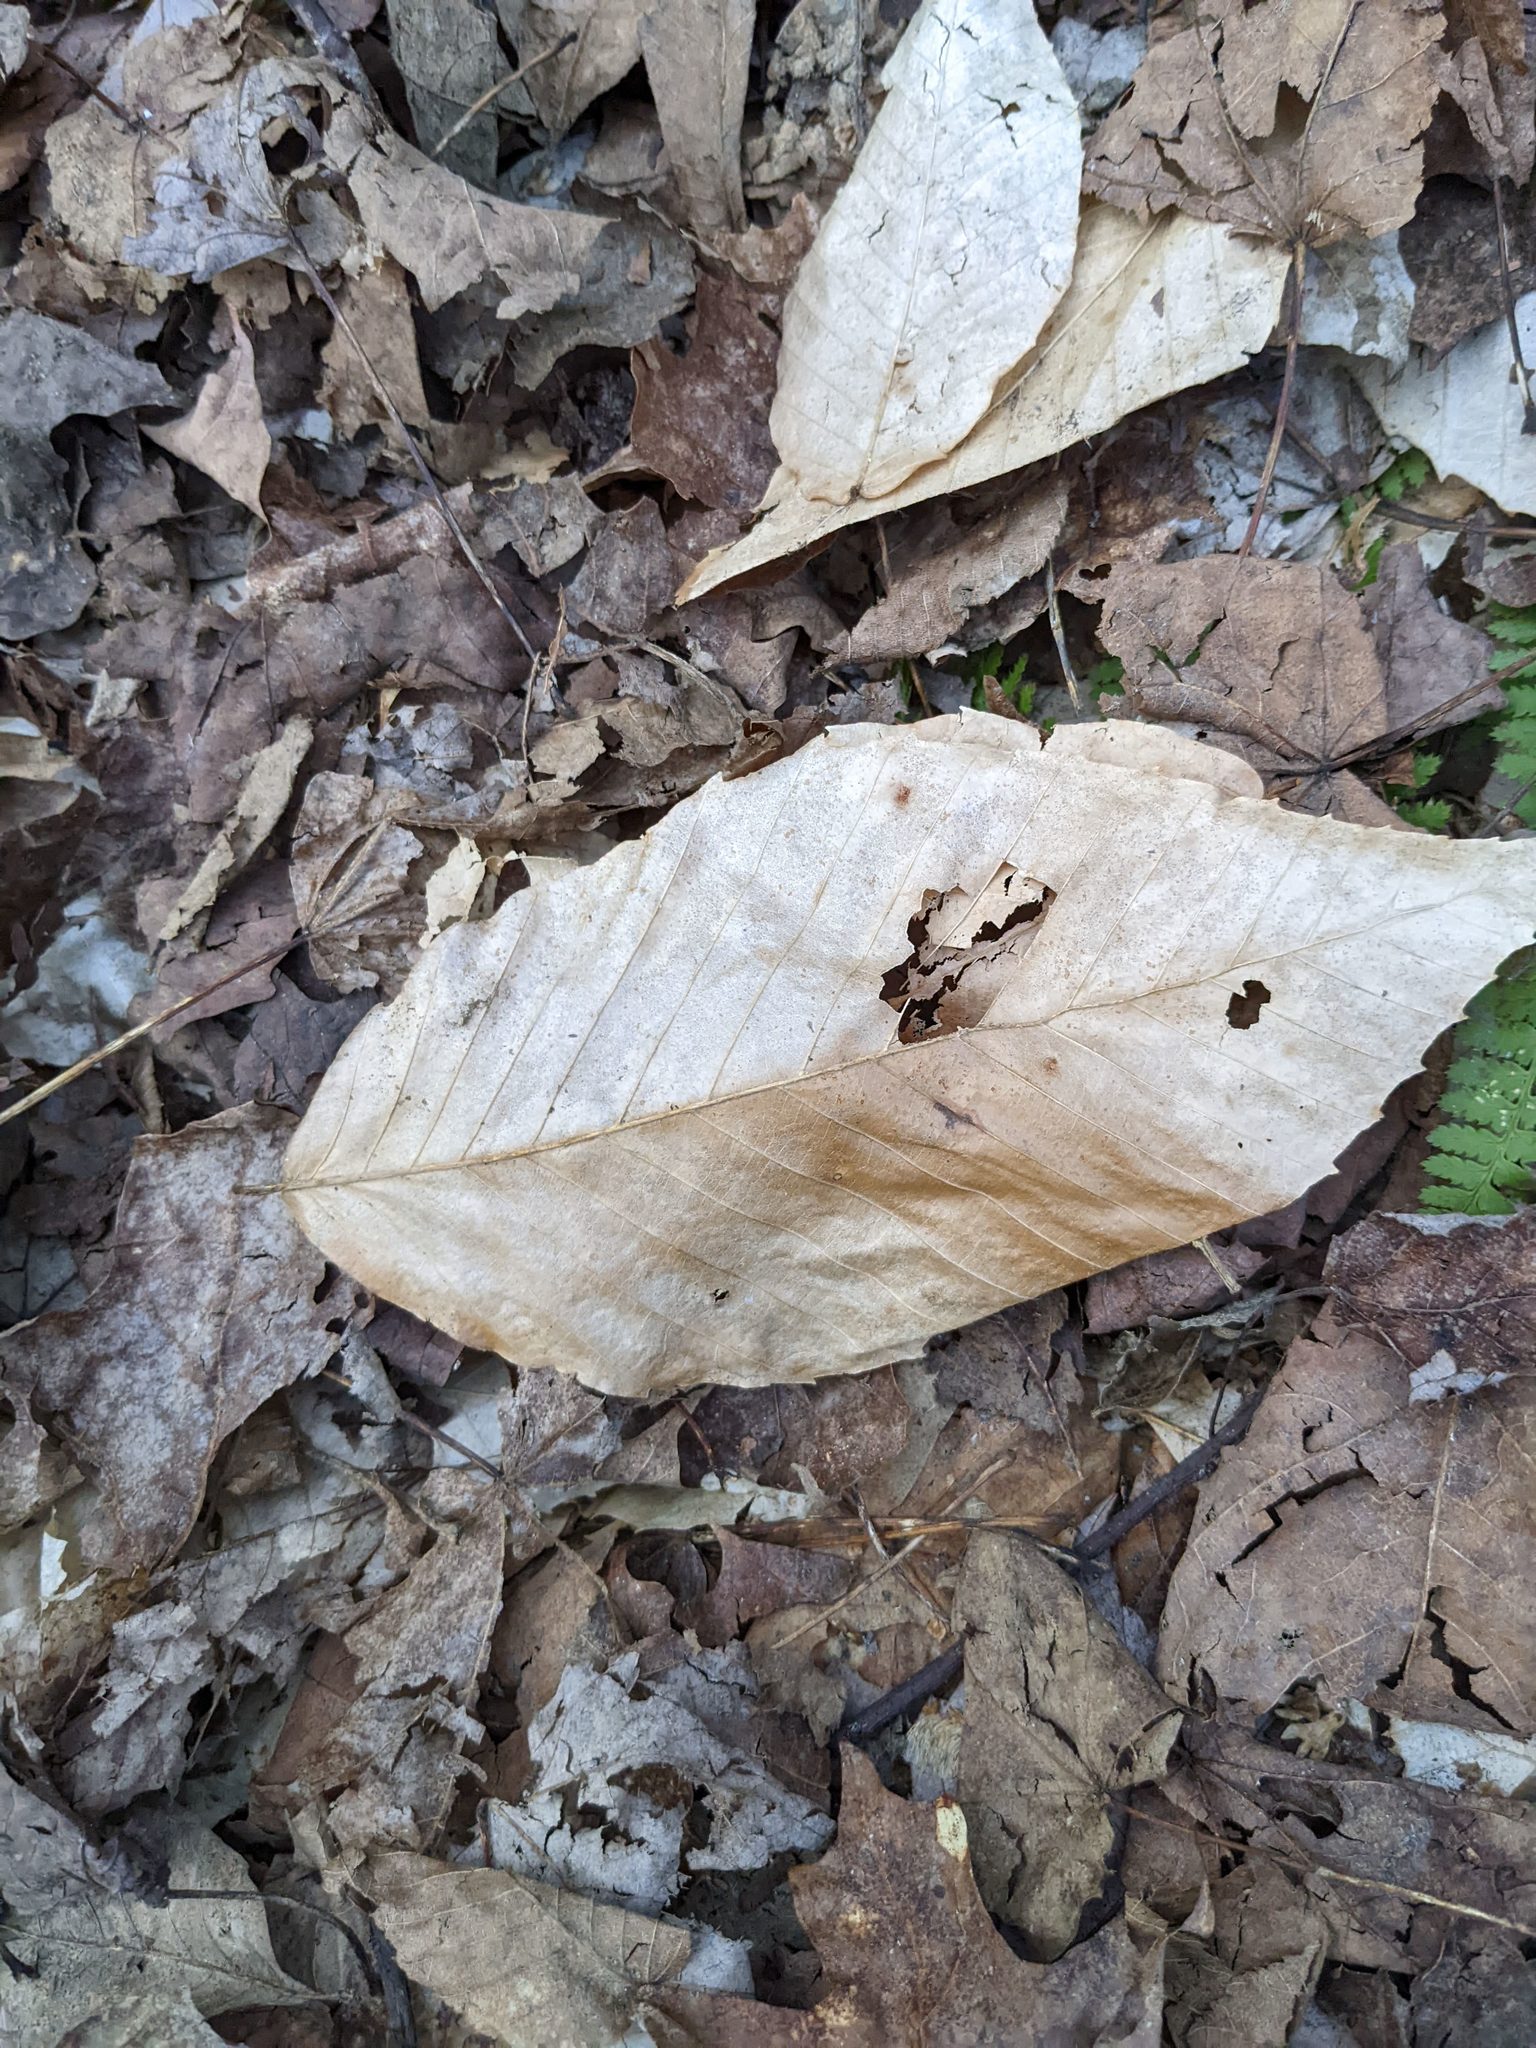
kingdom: Plantae
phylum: Tracheophyta
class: Magnoliopsida
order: Fagales
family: Fagaceae
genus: Fagus
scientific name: Fagus grandifolia
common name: American beech
